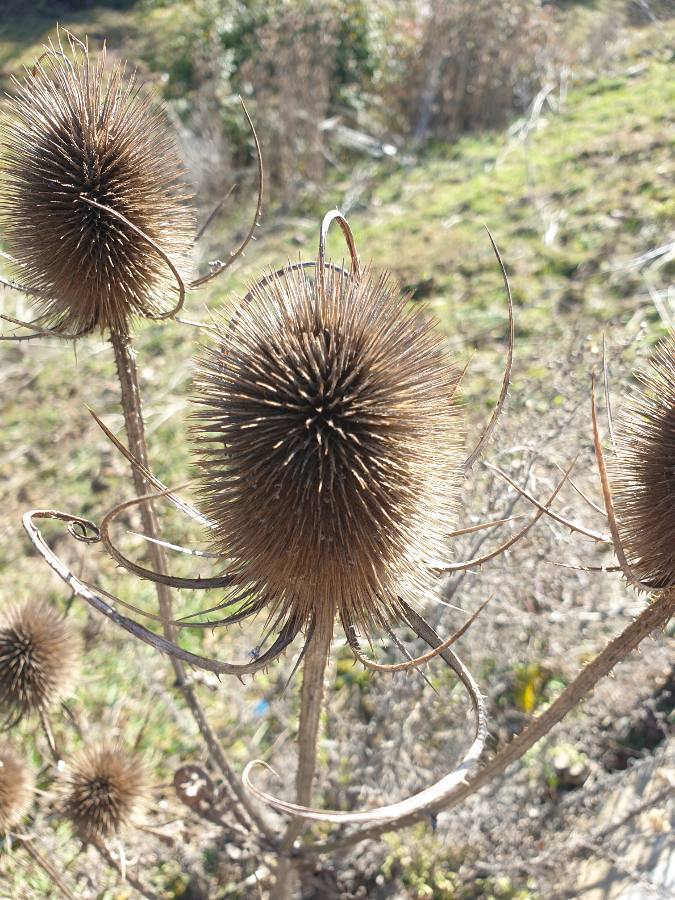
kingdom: Plantae
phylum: Tracheophyta
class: Magnoliopsida
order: Dipsacales
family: Caprifoliaceae
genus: Dipsacus
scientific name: Dipsacus fullonum
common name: Teasel
